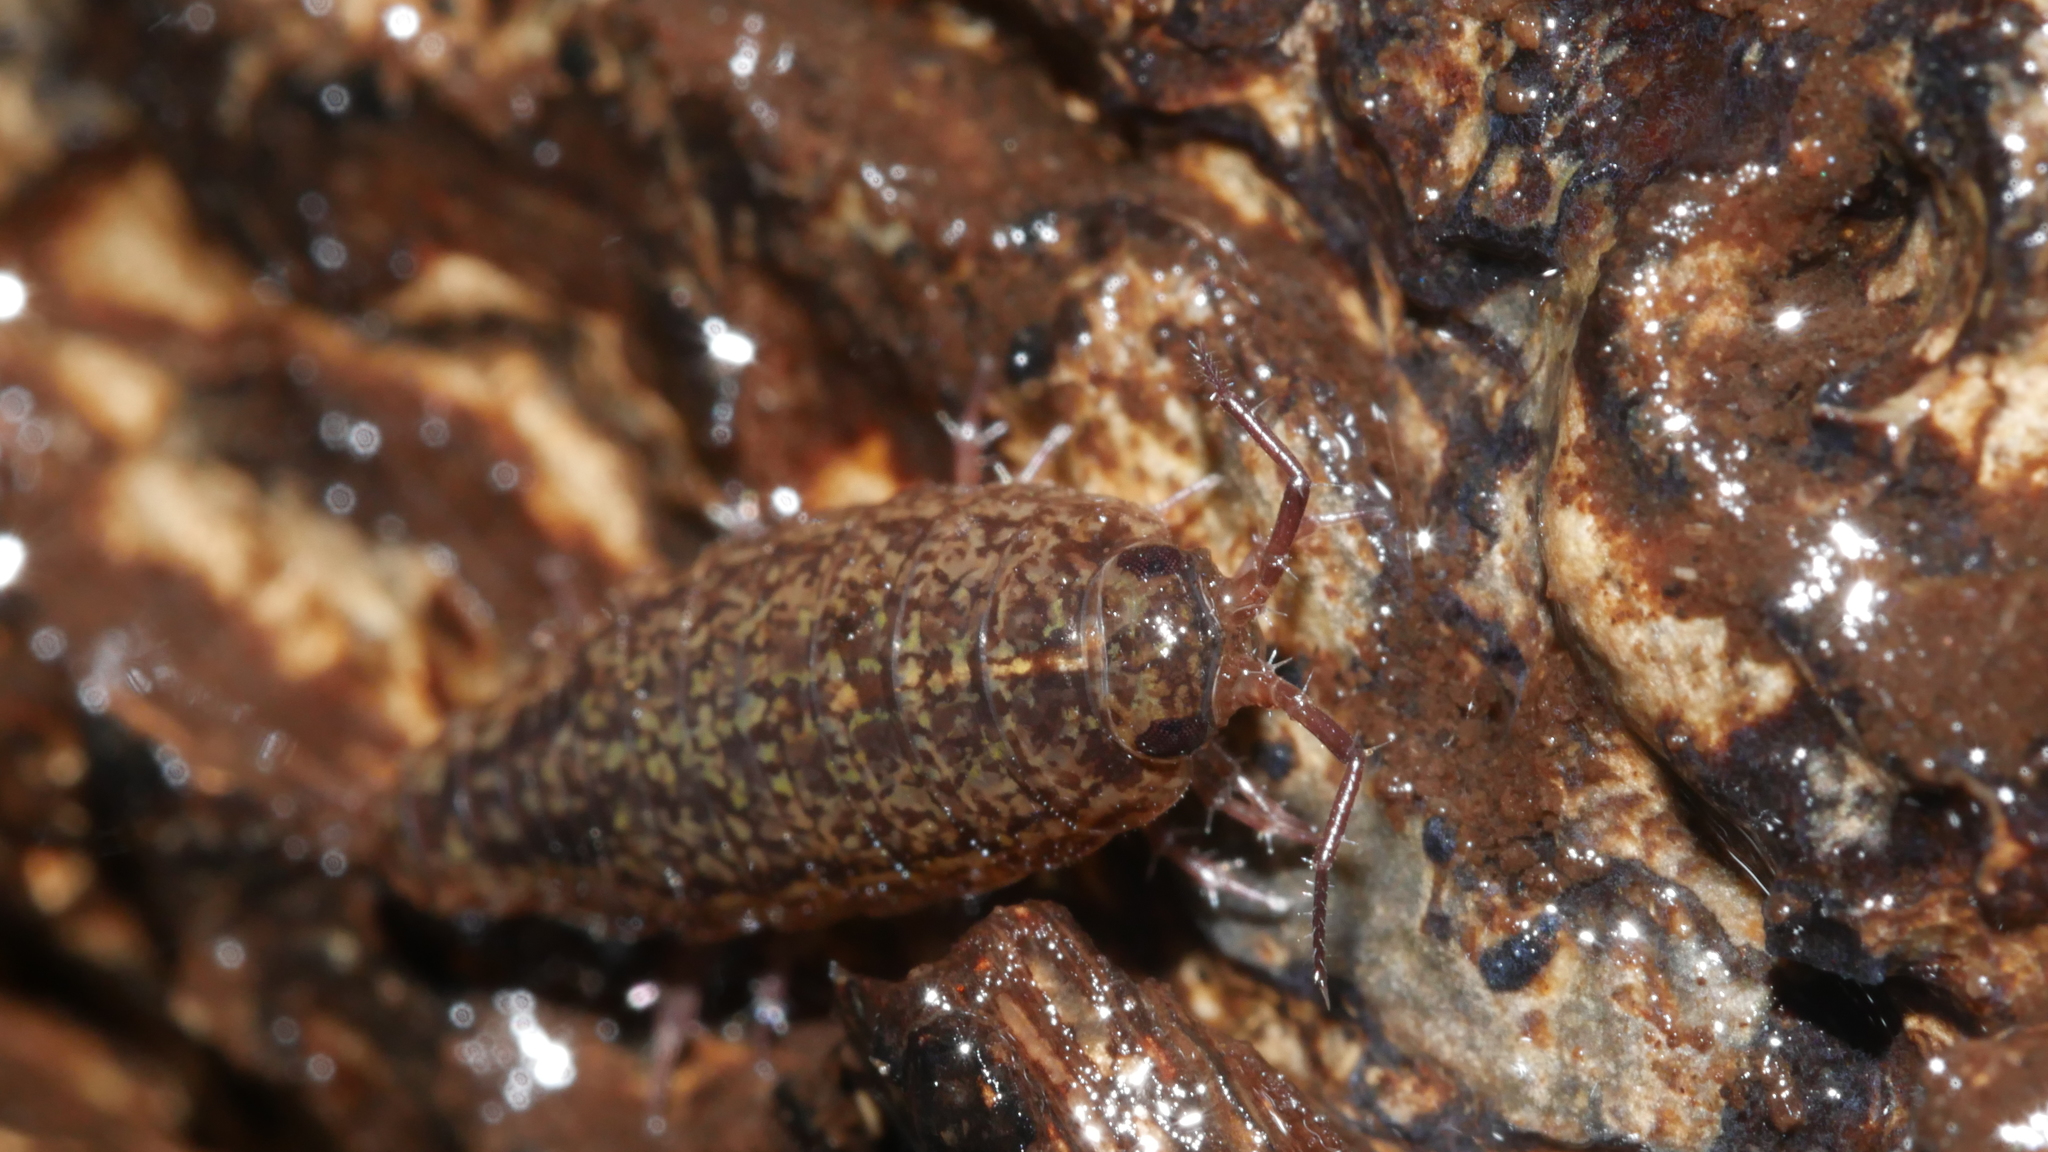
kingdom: Animalia
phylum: Arthropoda
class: Malacostraca
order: Isopoda
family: Ligiidae
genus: Ligidium
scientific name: Ligidium elrodii
